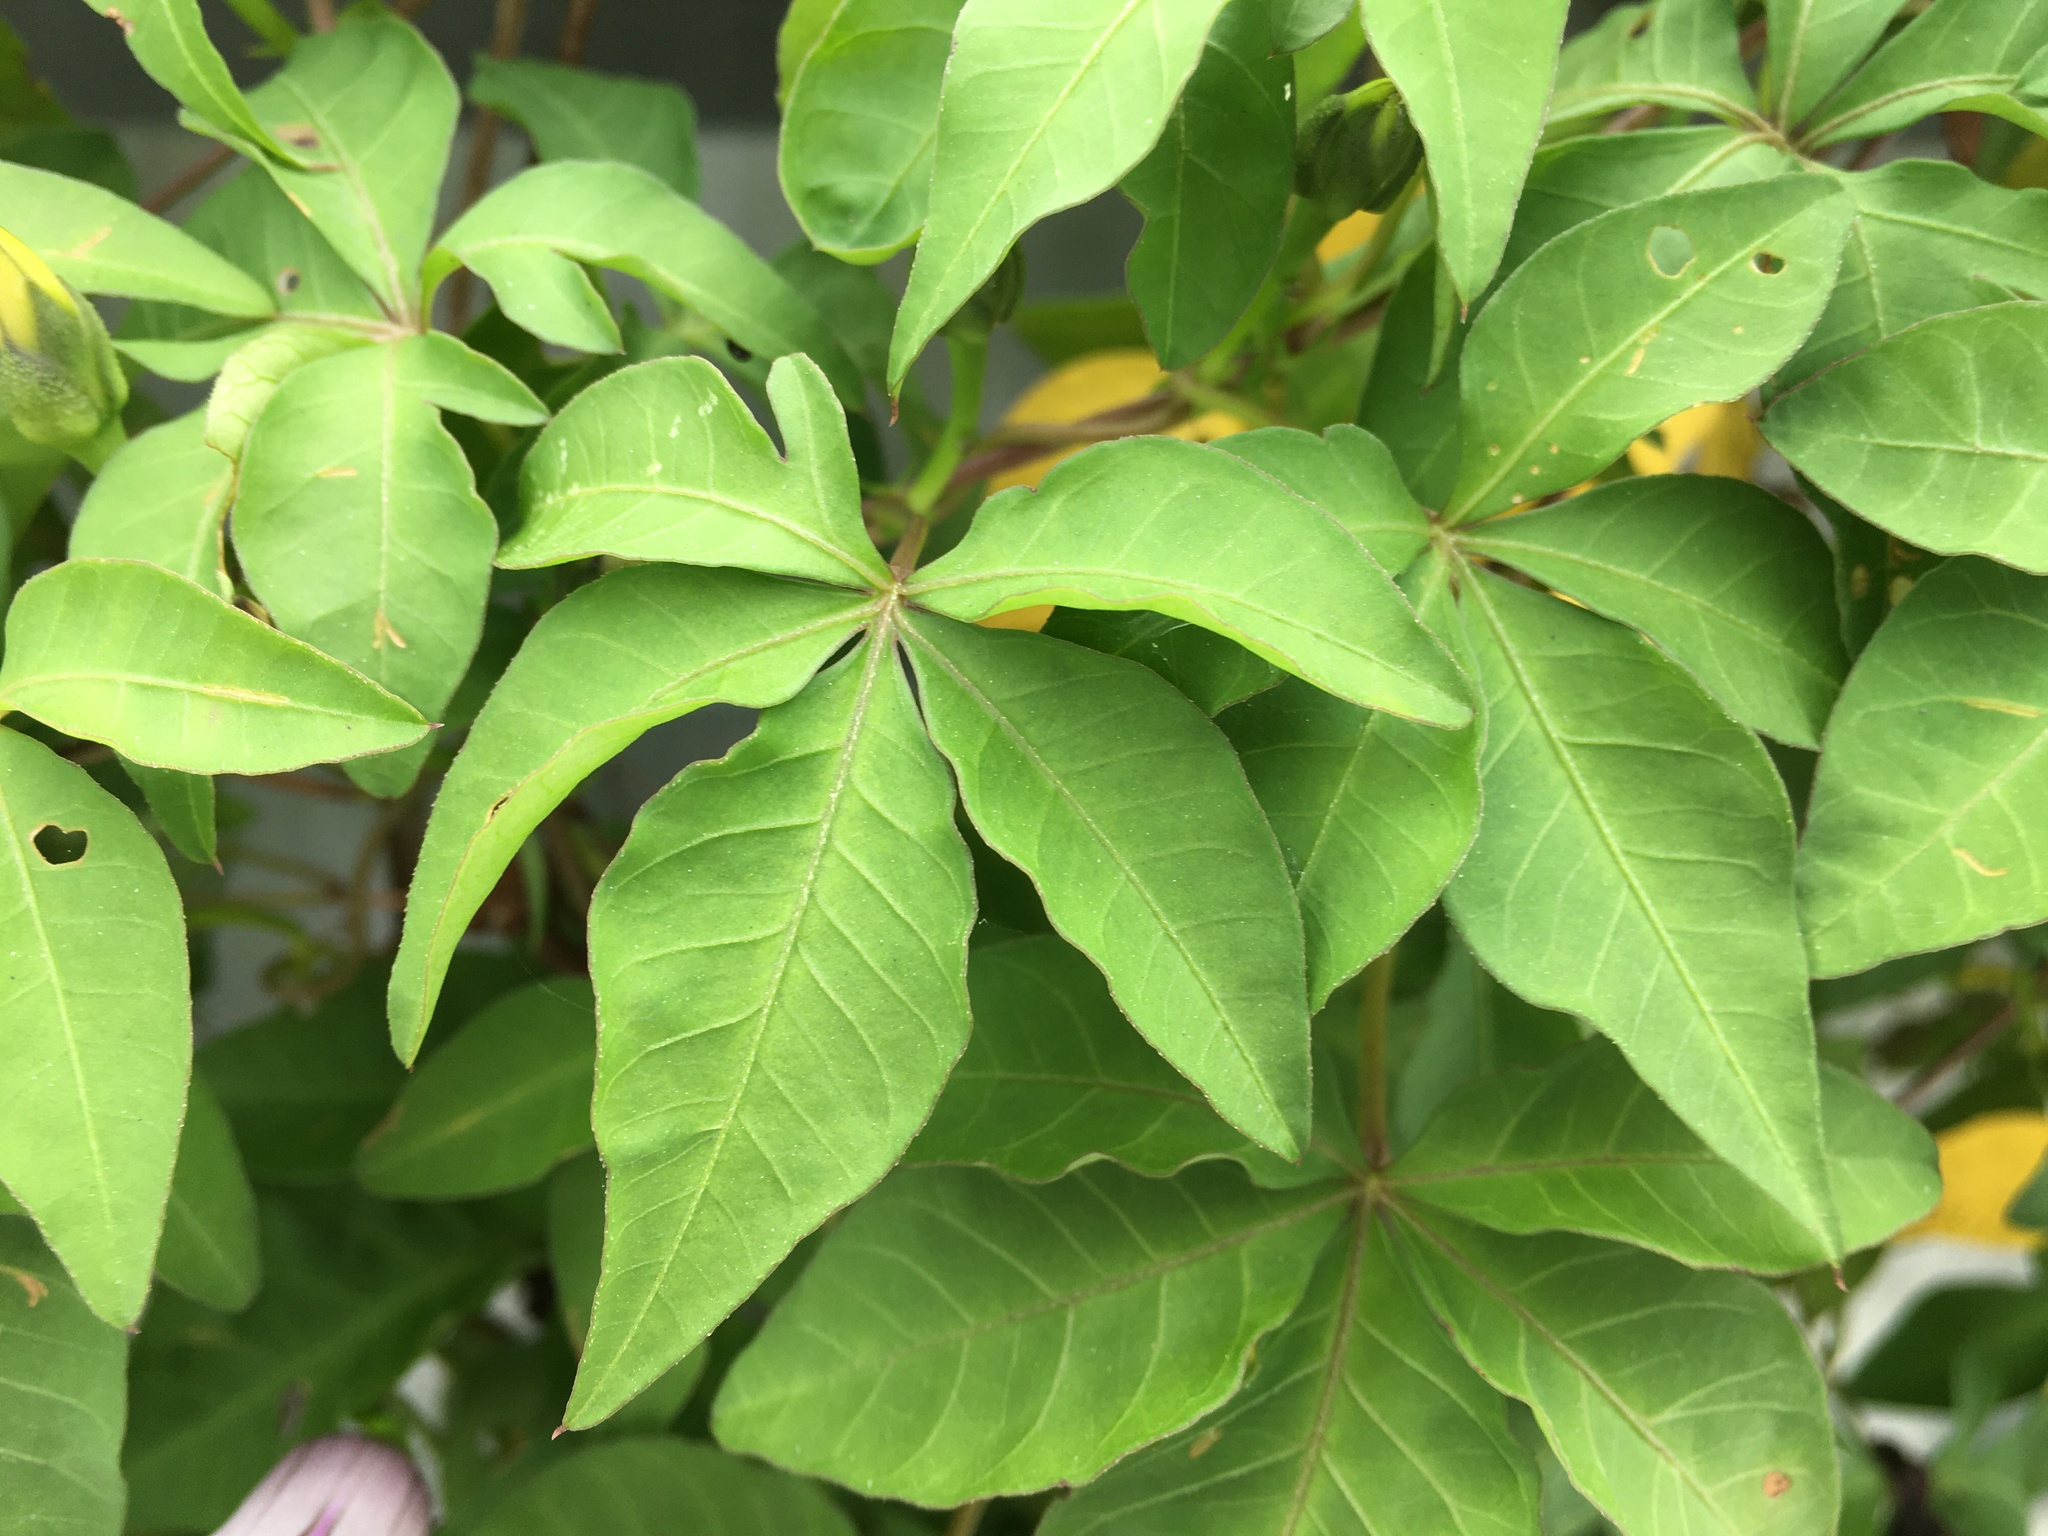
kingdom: Plantae
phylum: Tracheophyta
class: Magnoliopsida
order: Solanales
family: Convolvulaceae
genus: Ipomoea
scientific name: Ipomoea cairica
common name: Mile a minute vine
